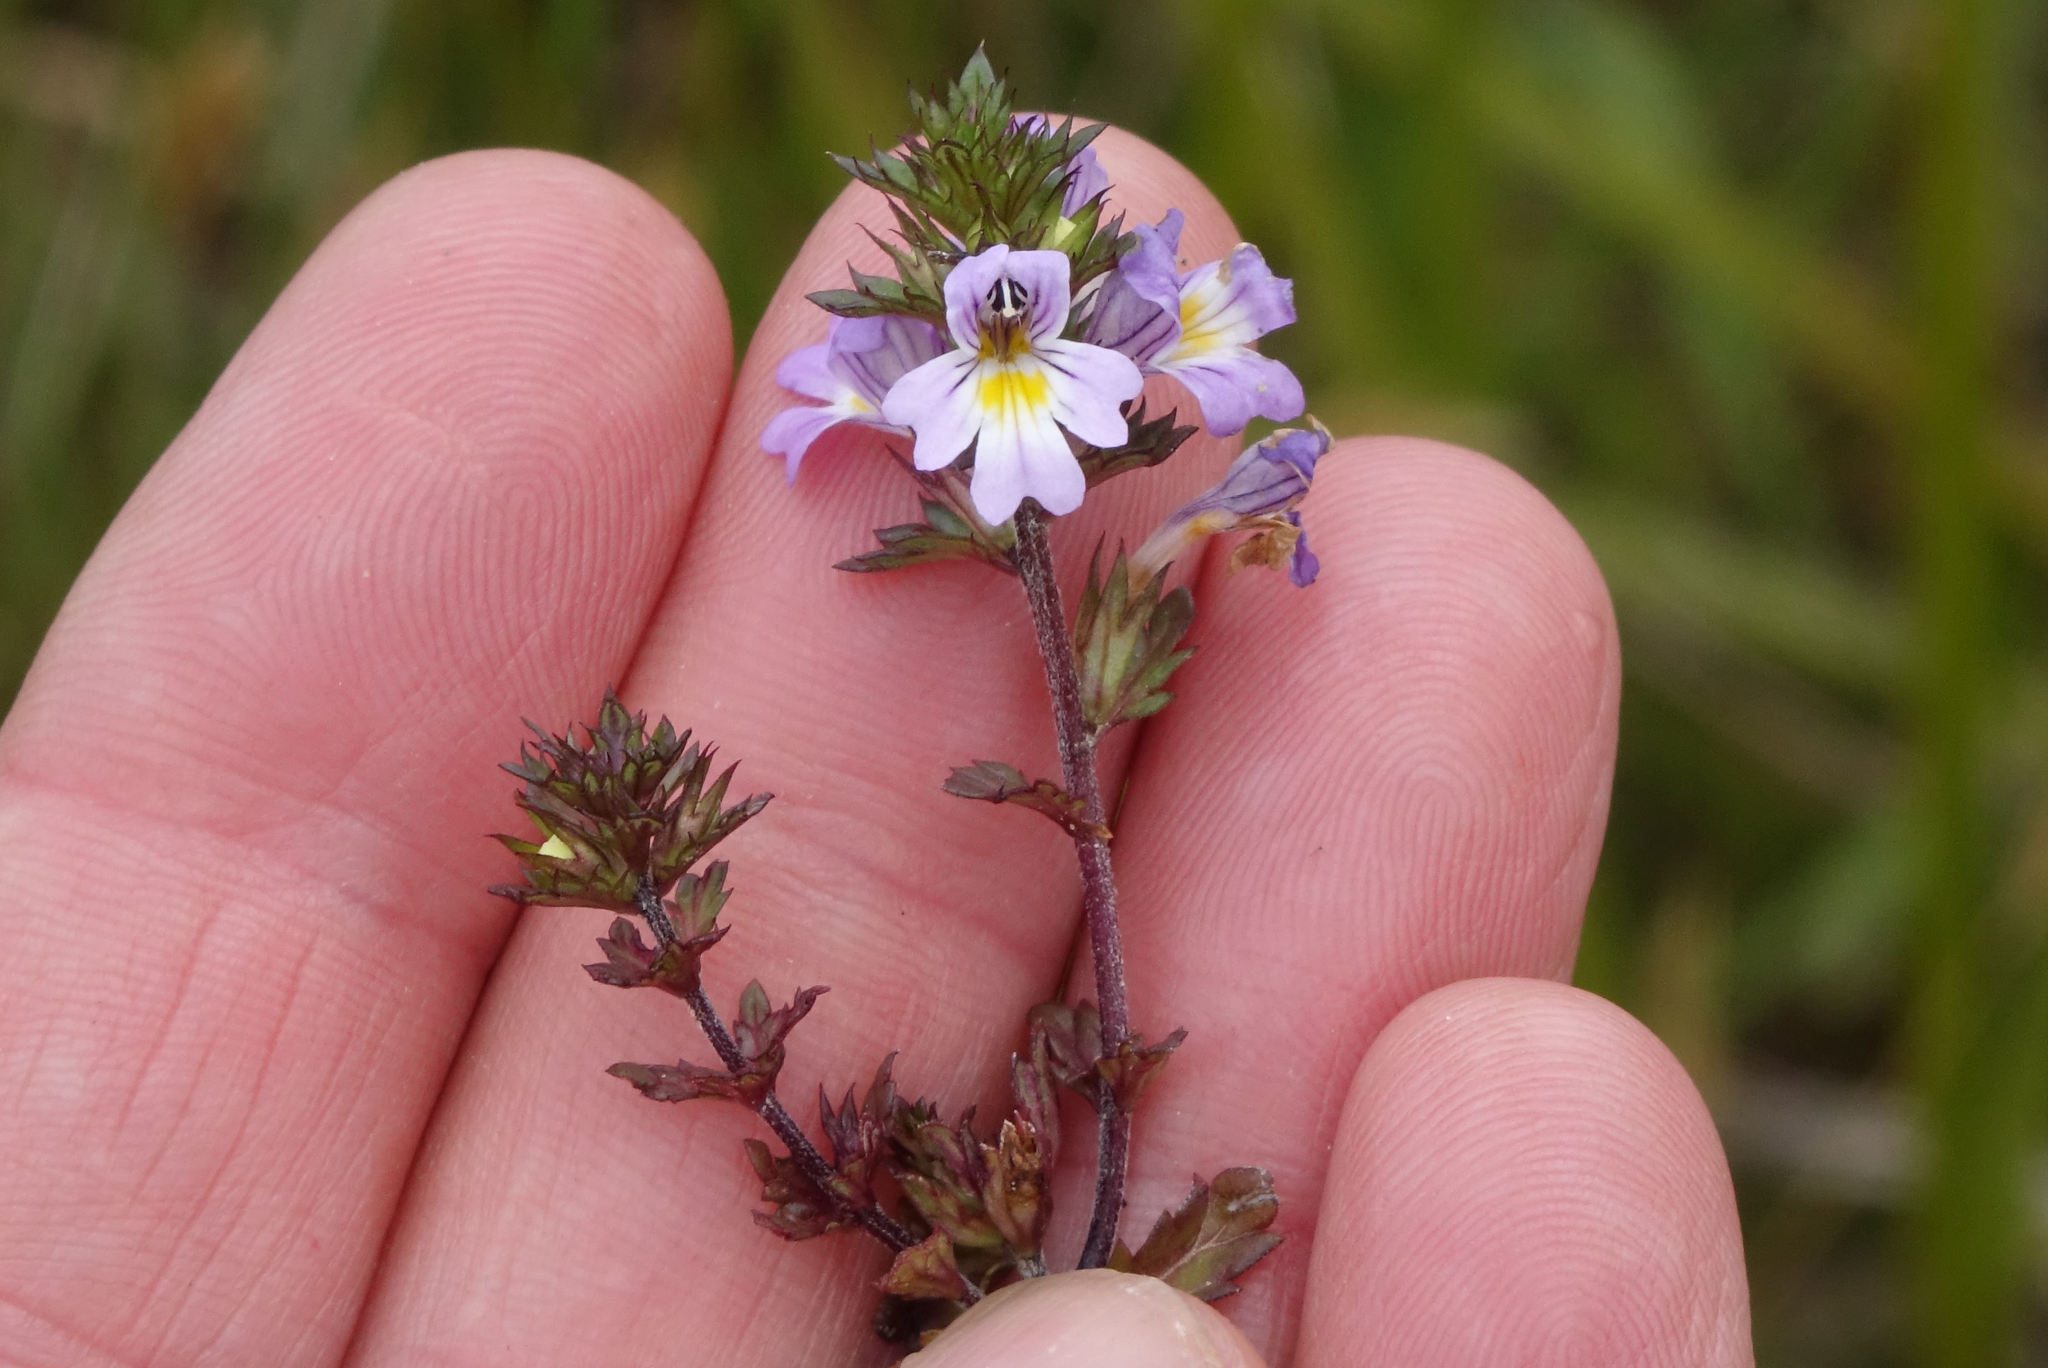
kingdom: Plantae
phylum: Tracheophyta
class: Magnoliopsida
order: Lamiales
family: Orobanchaceae
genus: Euphrasia
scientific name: Euphrasia nemorosa
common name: Common eyebright
